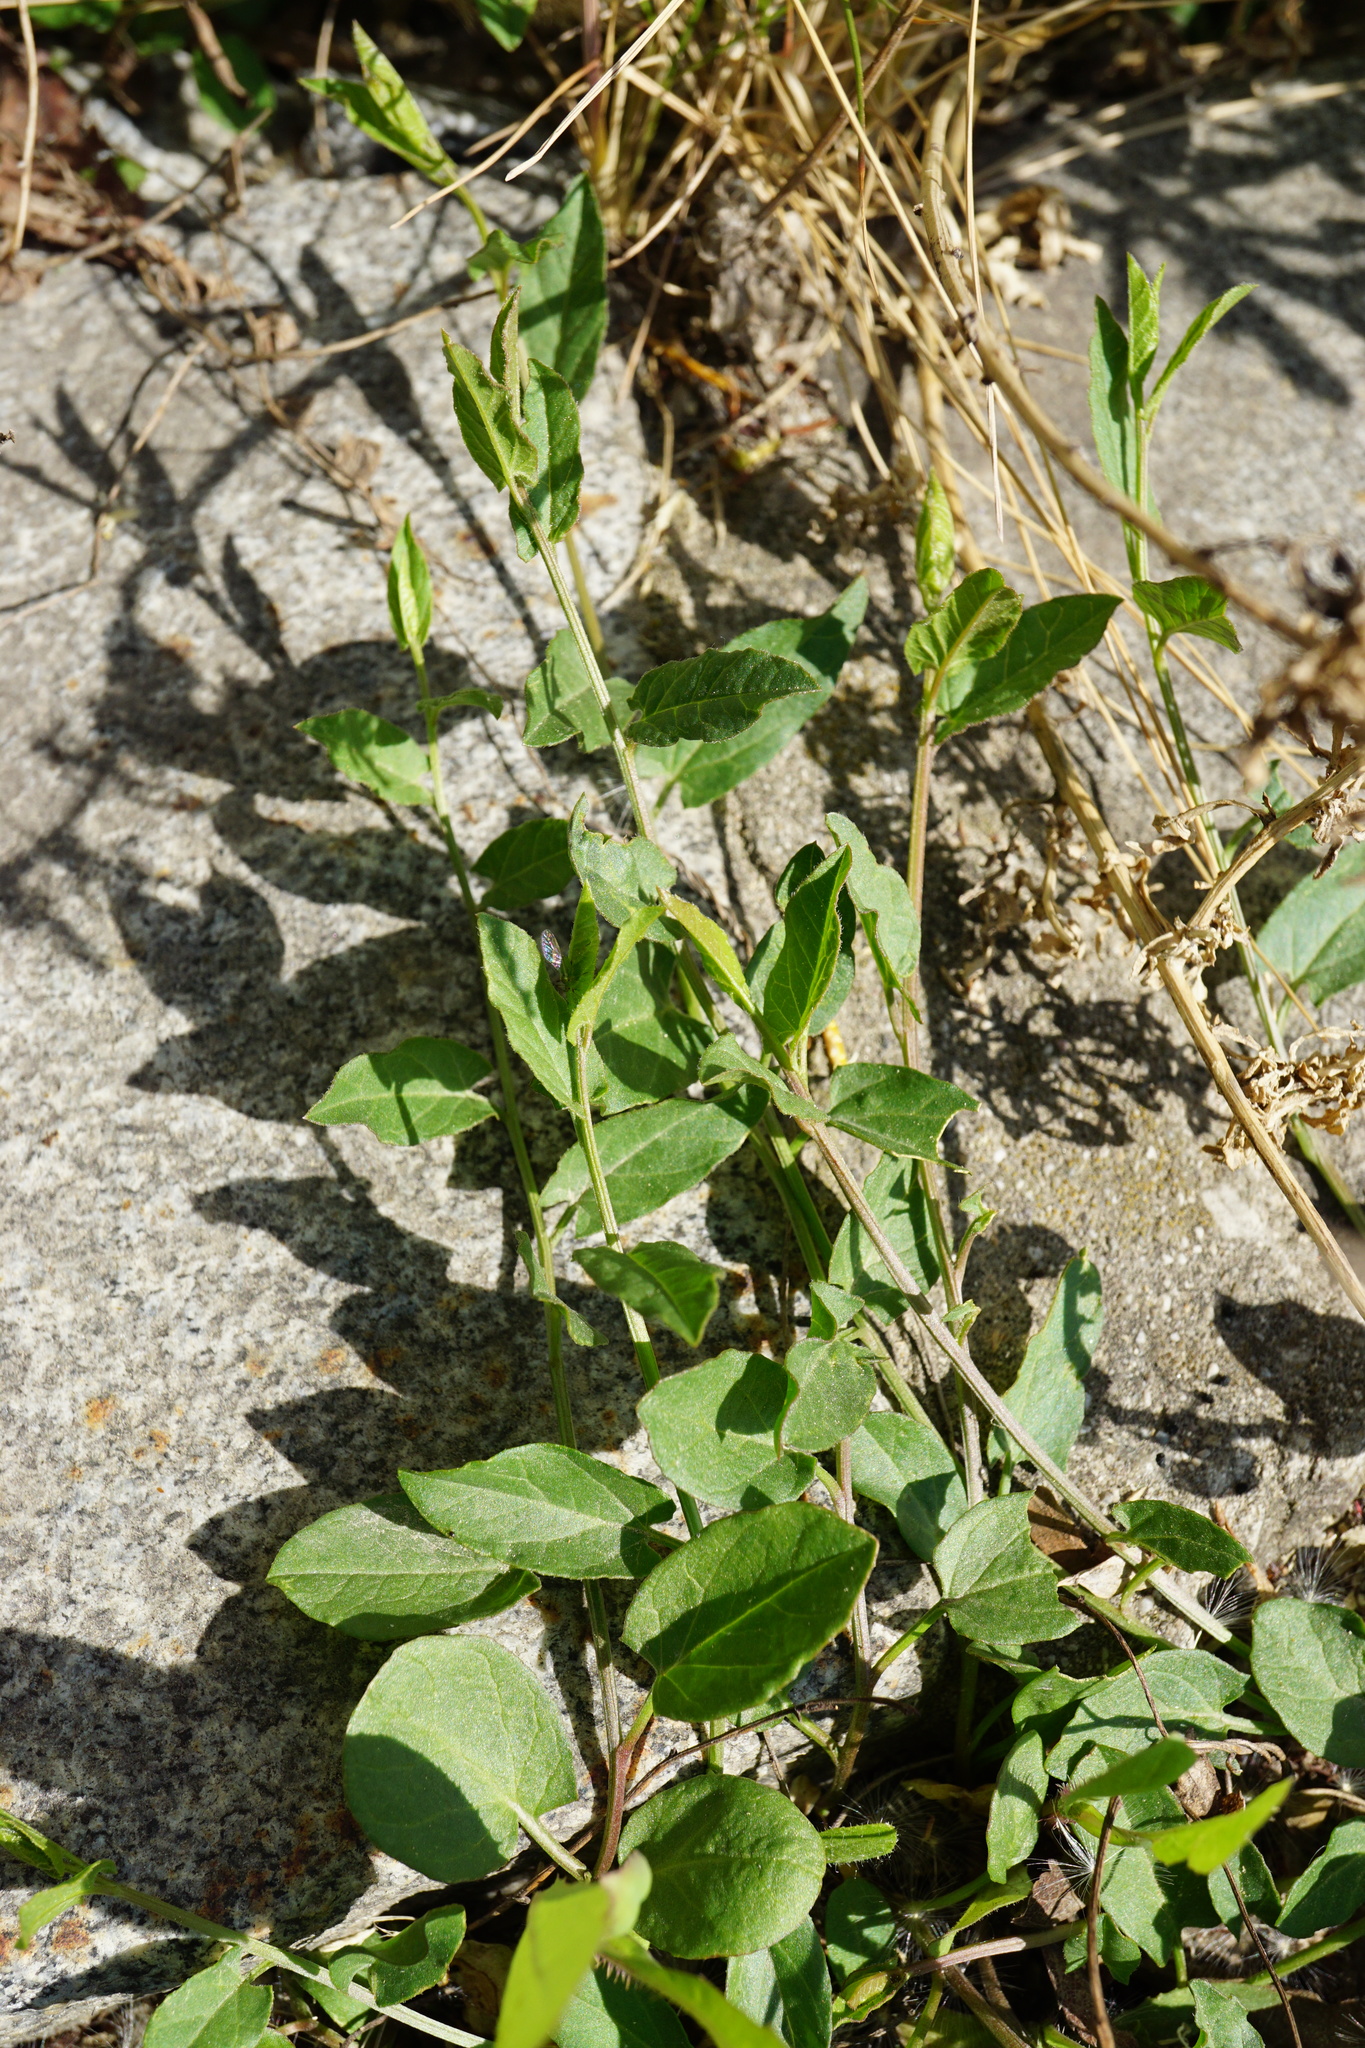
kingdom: Plantae
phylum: Tracheophyta
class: Magnoliopsida
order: Solanales
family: Convolvulaceae
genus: Convolvulus
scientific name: Convolvulus arvensis
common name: Field bindweed
